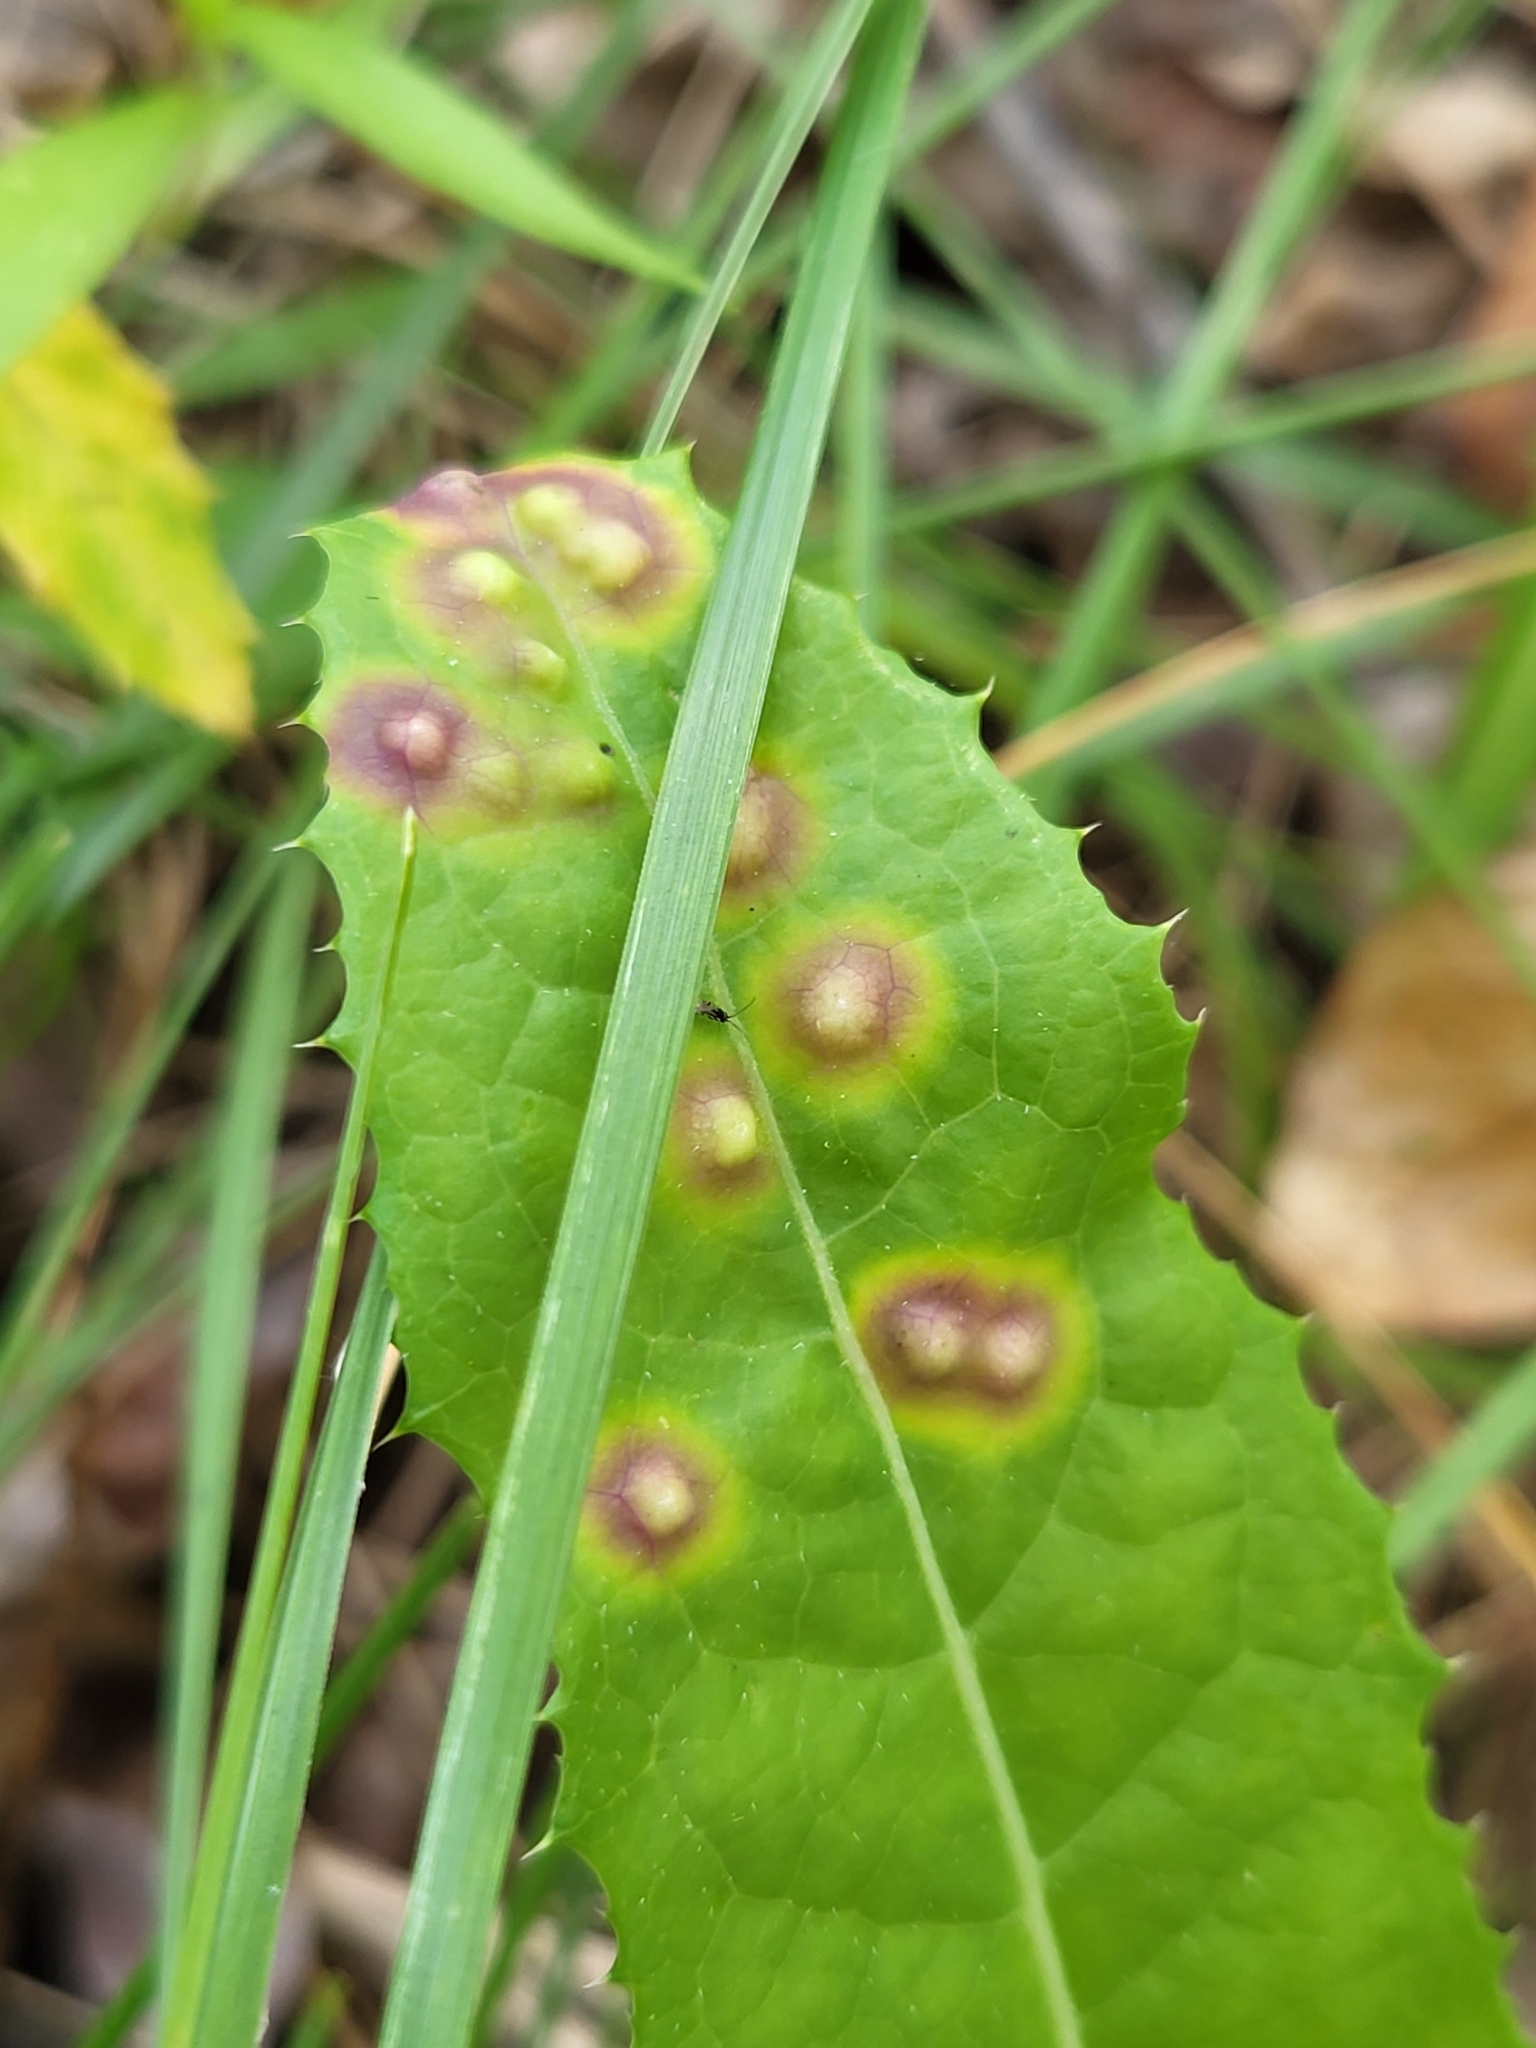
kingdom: Animalia
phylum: Arthropoda
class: Insecta
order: Diptera
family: Cecidomyiidae
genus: Cystiphora
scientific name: Cystiphora sonchi
